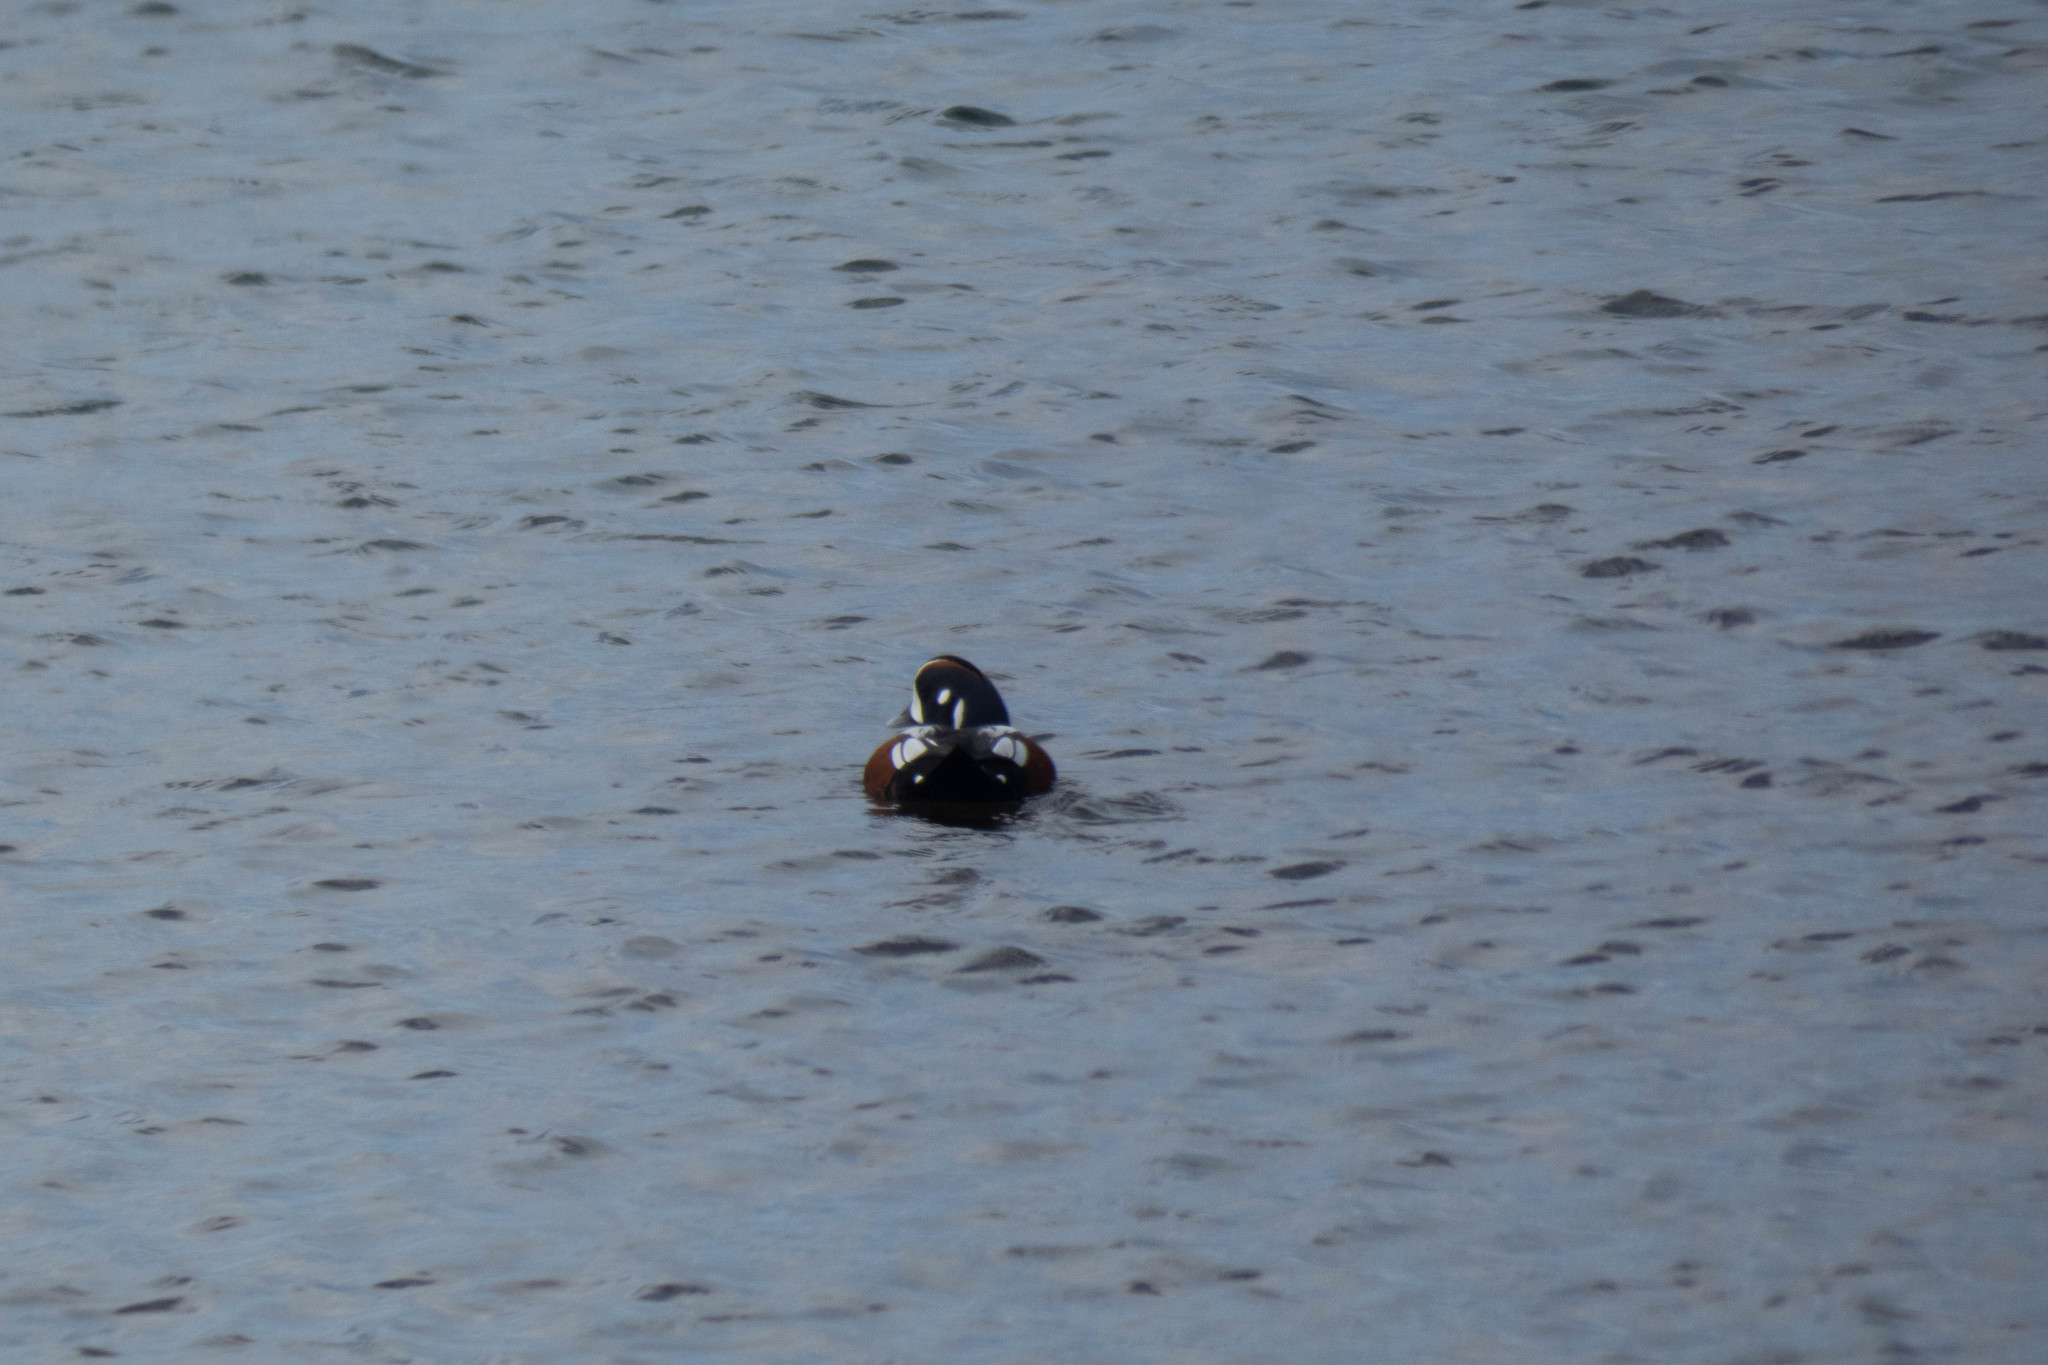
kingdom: Animalia
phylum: Chordata
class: Aves
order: Anseriformes
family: Anatidae
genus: Histrionicus
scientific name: Histrionicus histrionicus
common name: Harlequin duck
